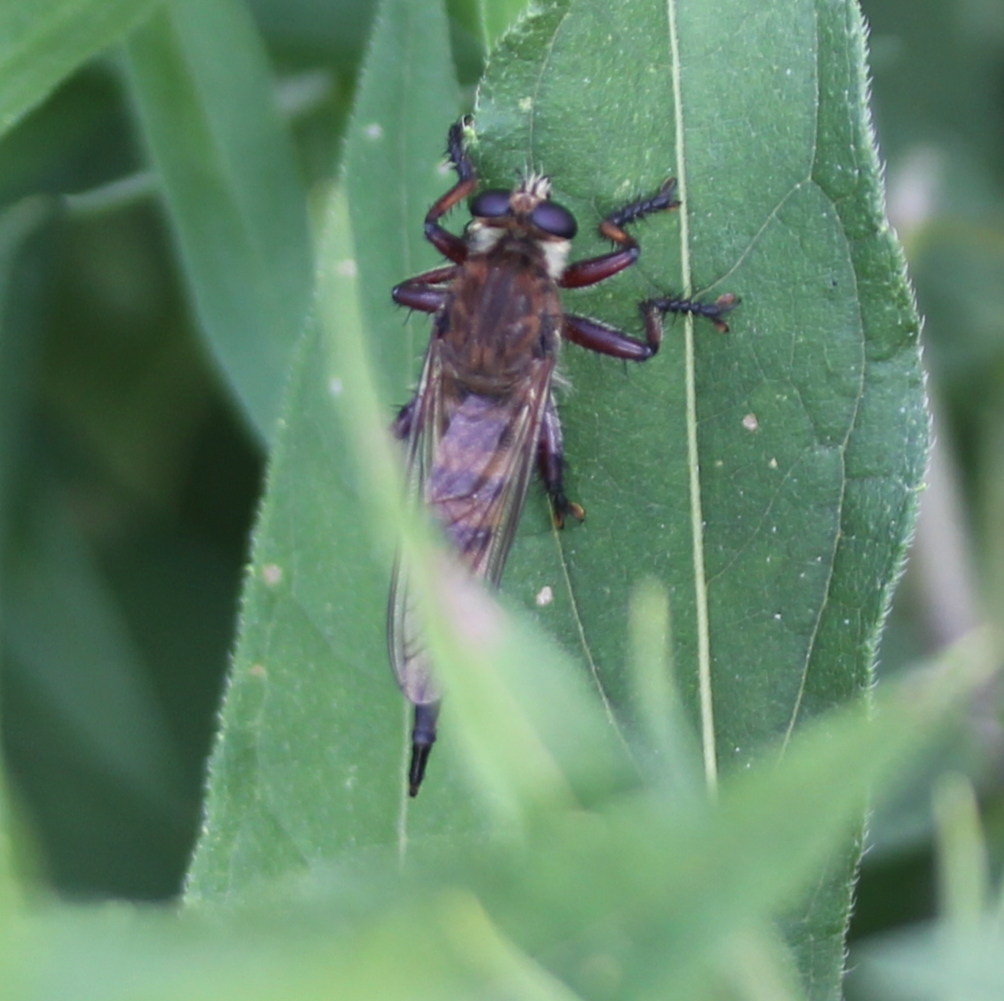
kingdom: Animalia
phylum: Arthropoda
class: Insecta
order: Diptera
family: Asilidae
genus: Promachus
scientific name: Promachus hinei
